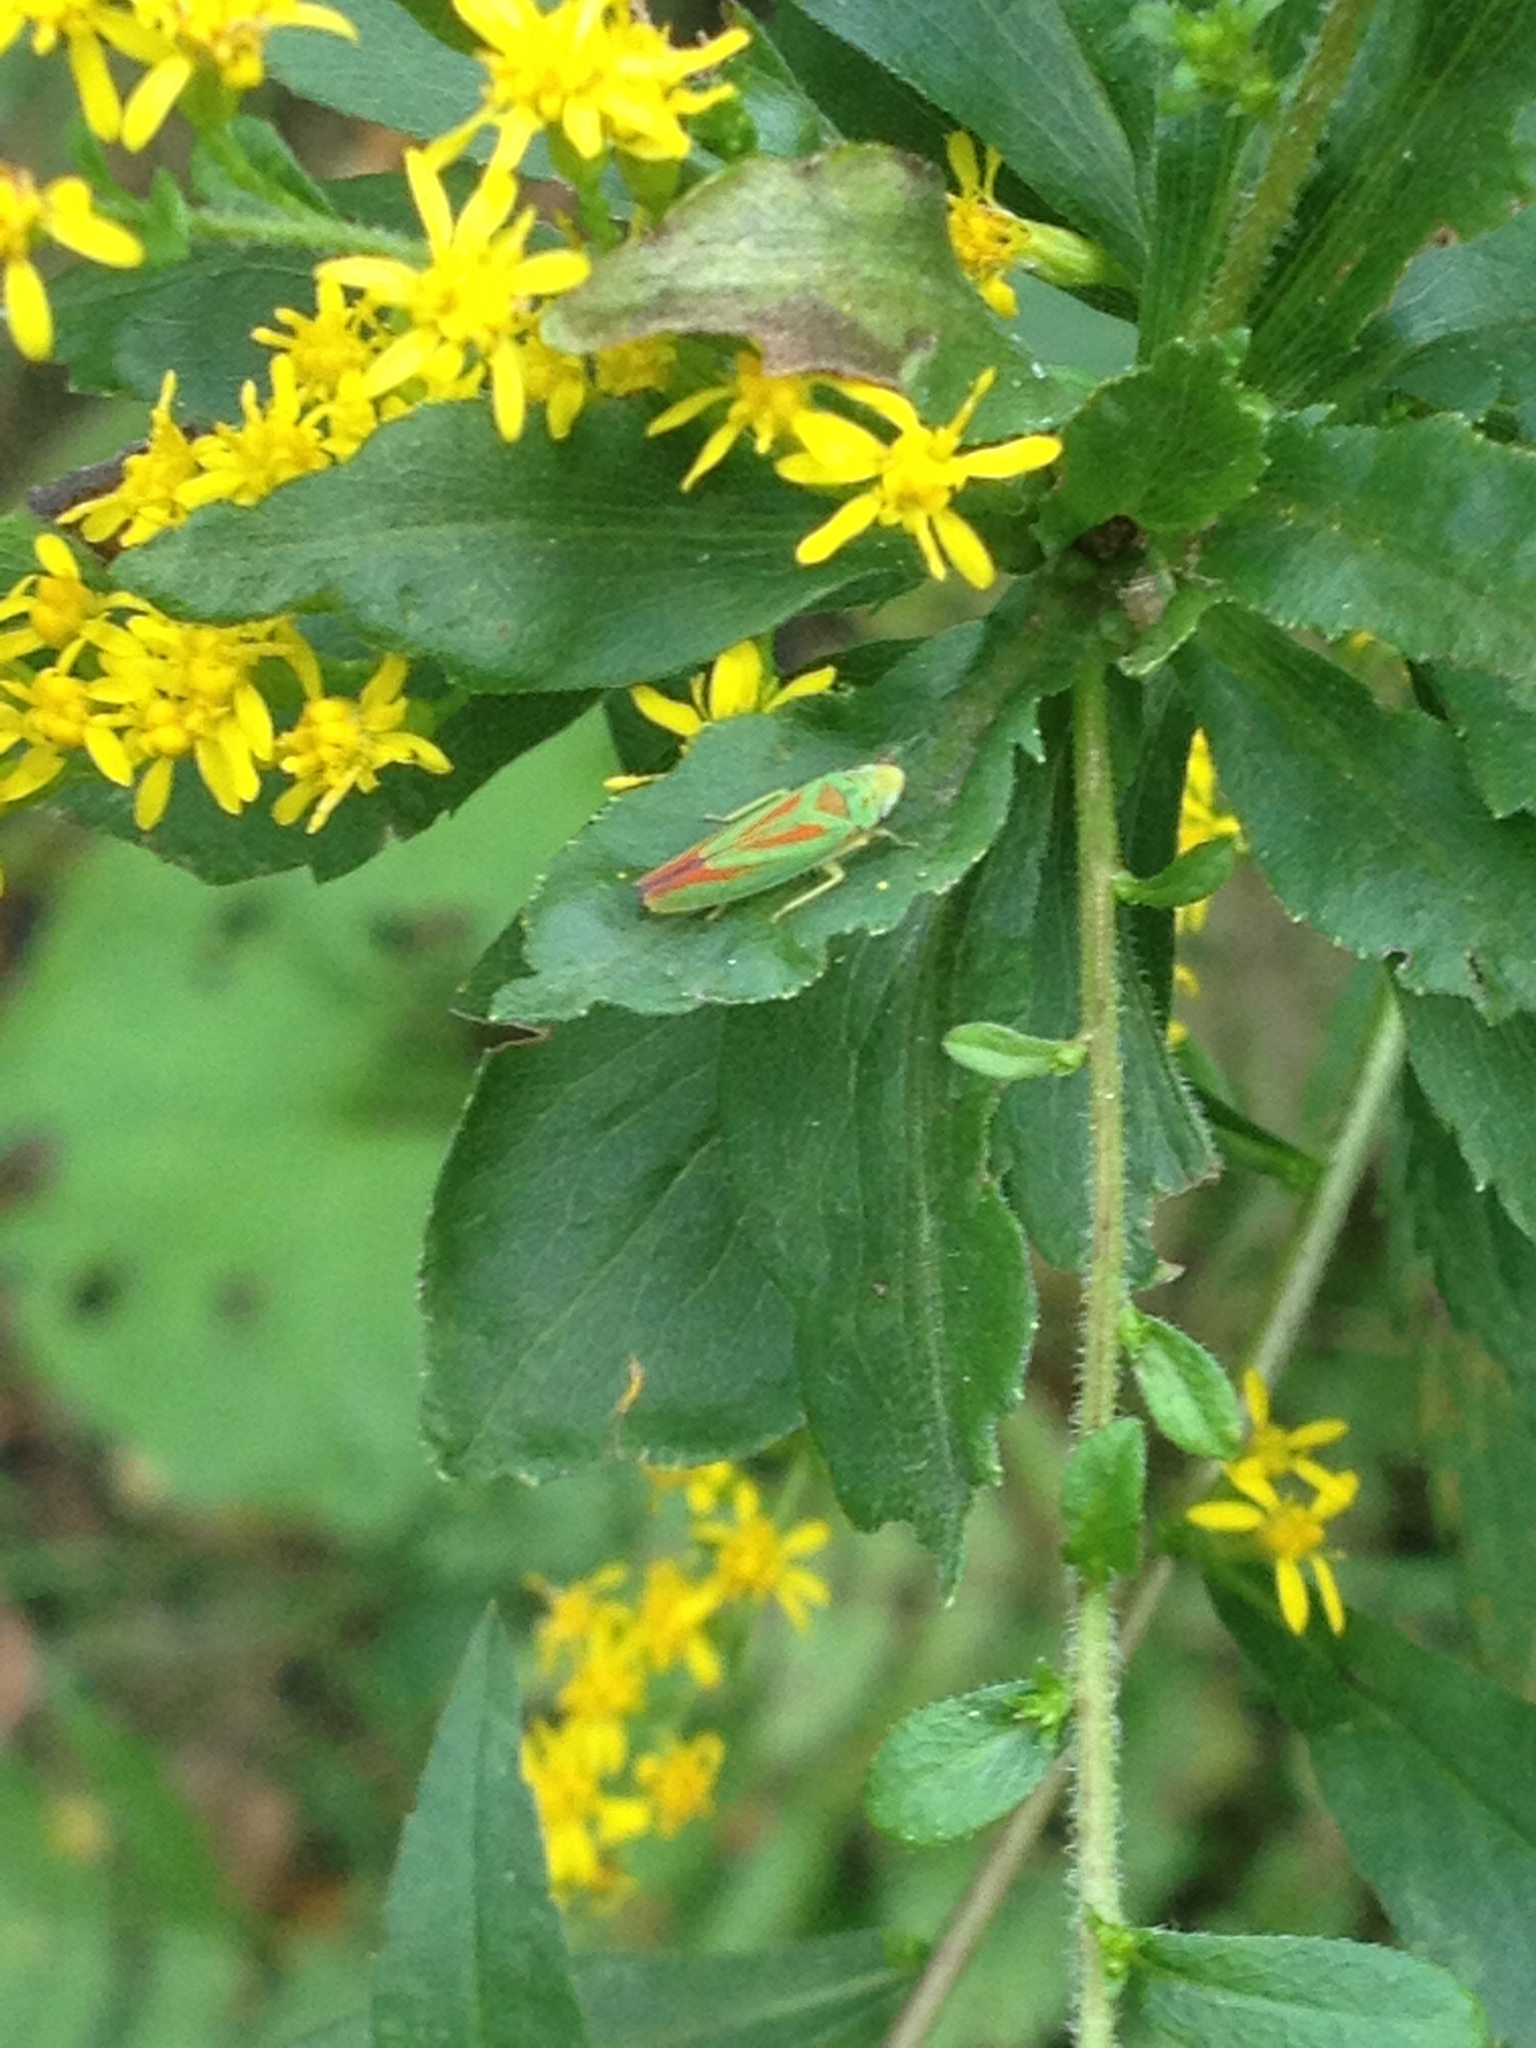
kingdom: Animalia
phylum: Arthropoda
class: Insecta
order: Hemiptera
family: Cicadellidae
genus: Graphocephala
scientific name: Graphocephala fennahi
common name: Rhododendron leafhopper
